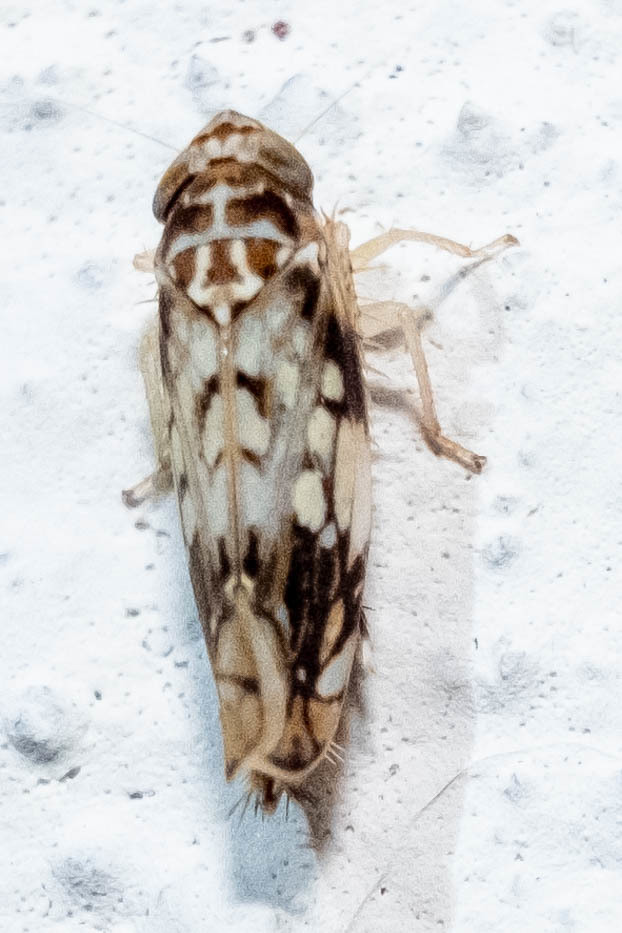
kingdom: Animalia
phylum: Arthropoda
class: Insecta
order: Hemiptera
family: Cicadellidae
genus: Scaphoideus
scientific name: Scaphoideus obtusus
